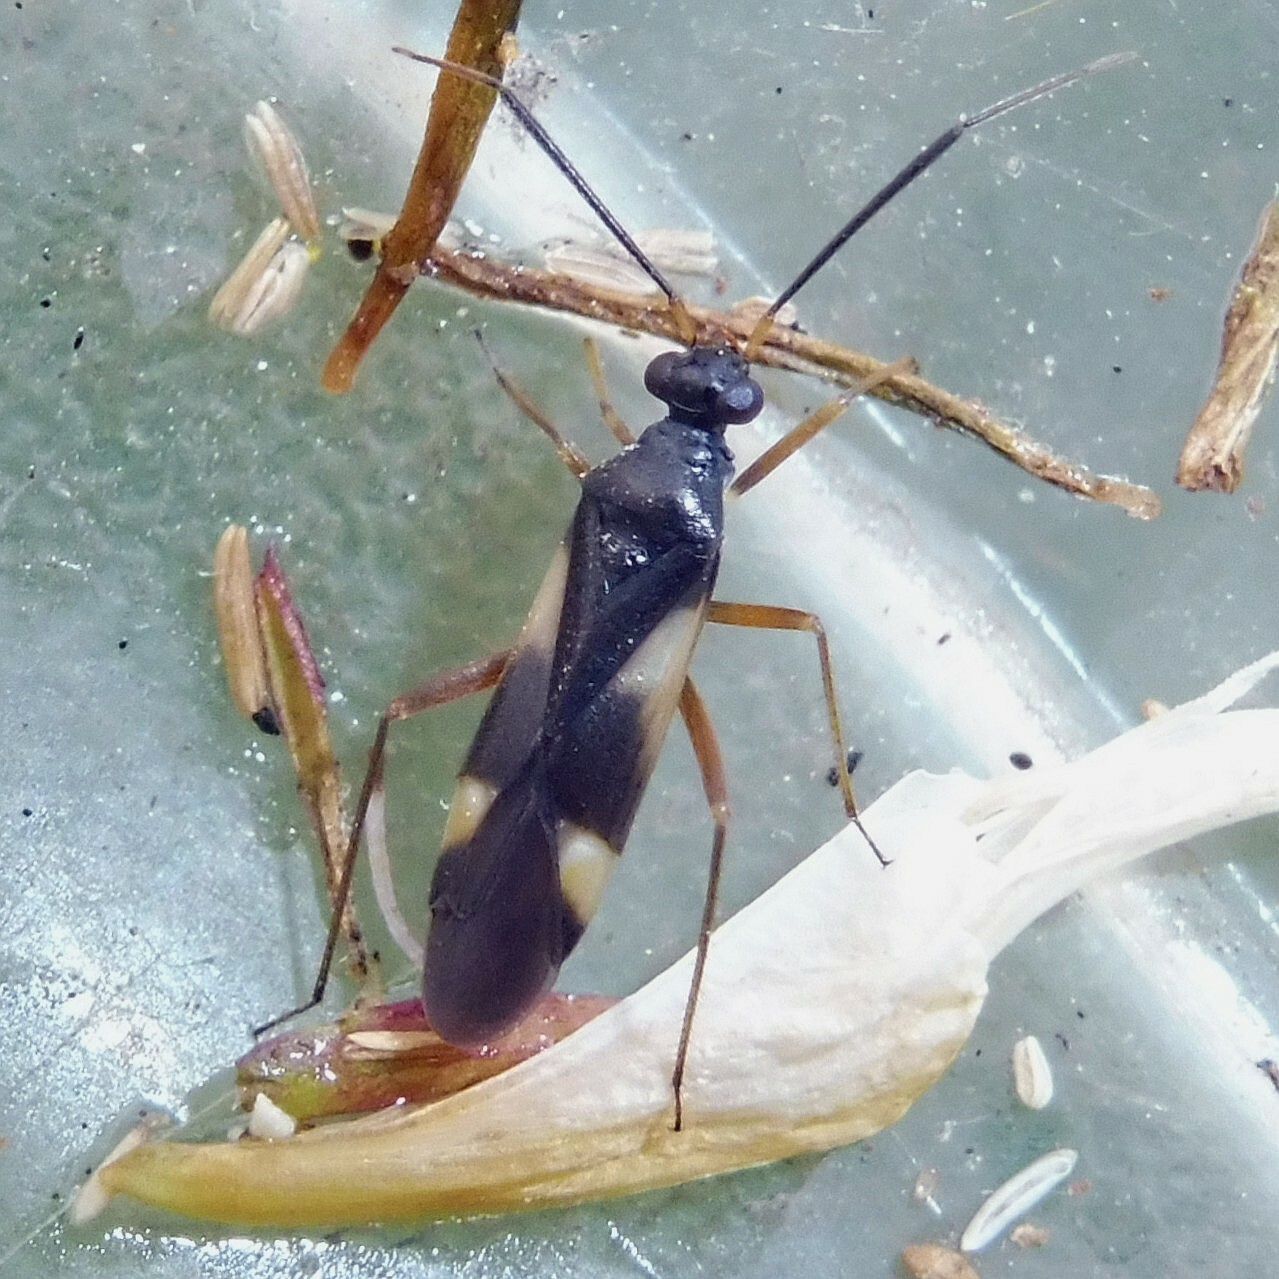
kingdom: Animalia
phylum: Arthropoda
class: Insecta
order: Hemiptera
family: Miridae
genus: Globiceps
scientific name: Globiceps flavomaculatus
